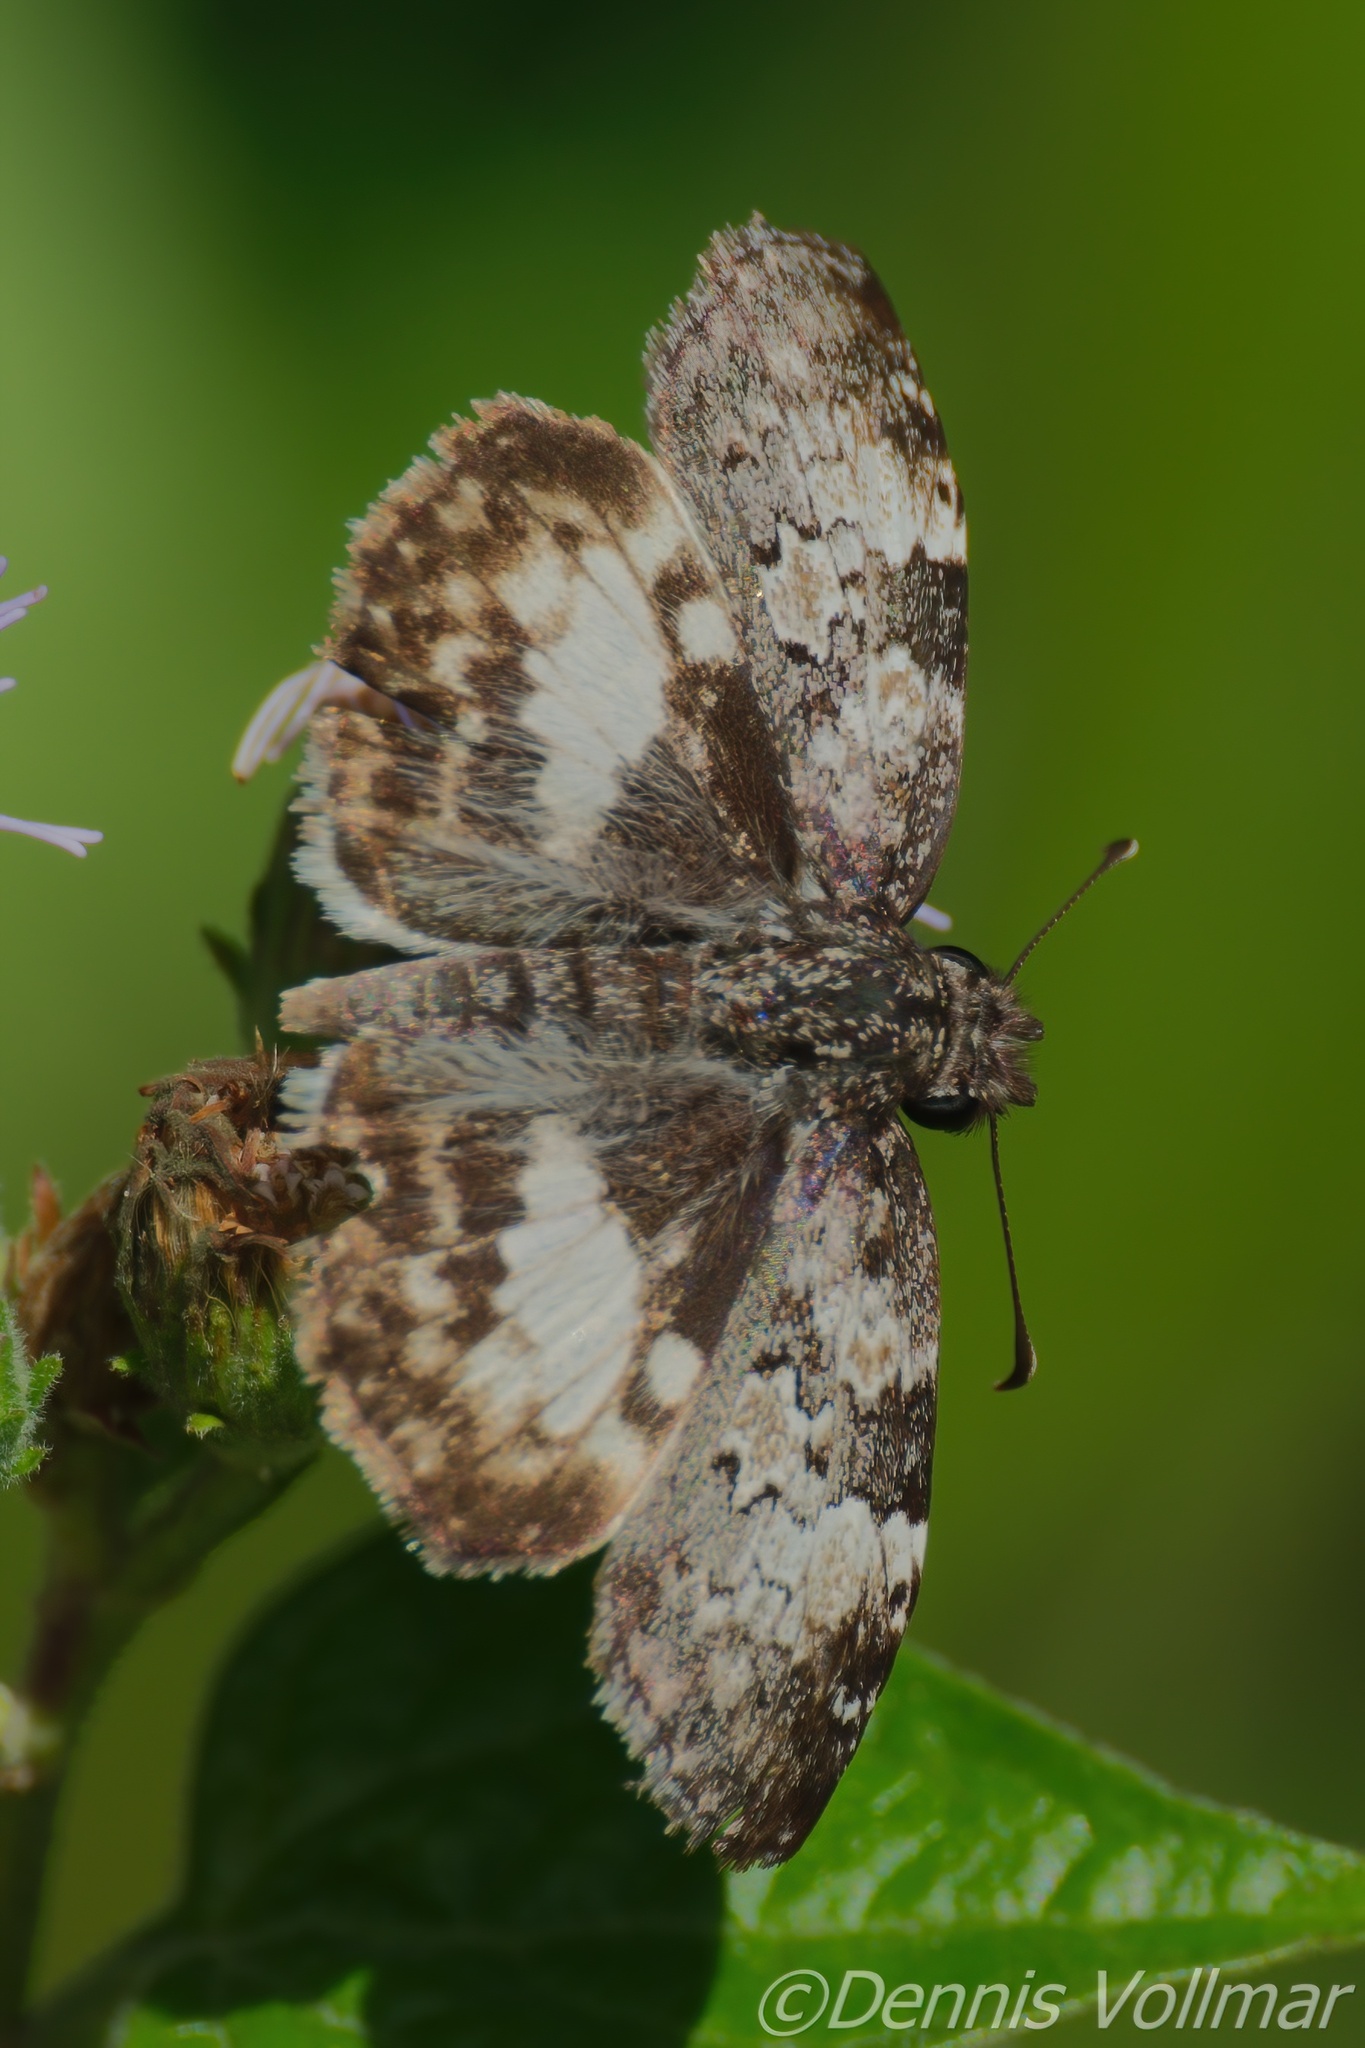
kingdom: Animalia
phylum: Arthropoda
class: Insecta
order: Lepidoptera
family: Hesperiidae
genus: Chiothion
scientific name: Chiothion georgina
